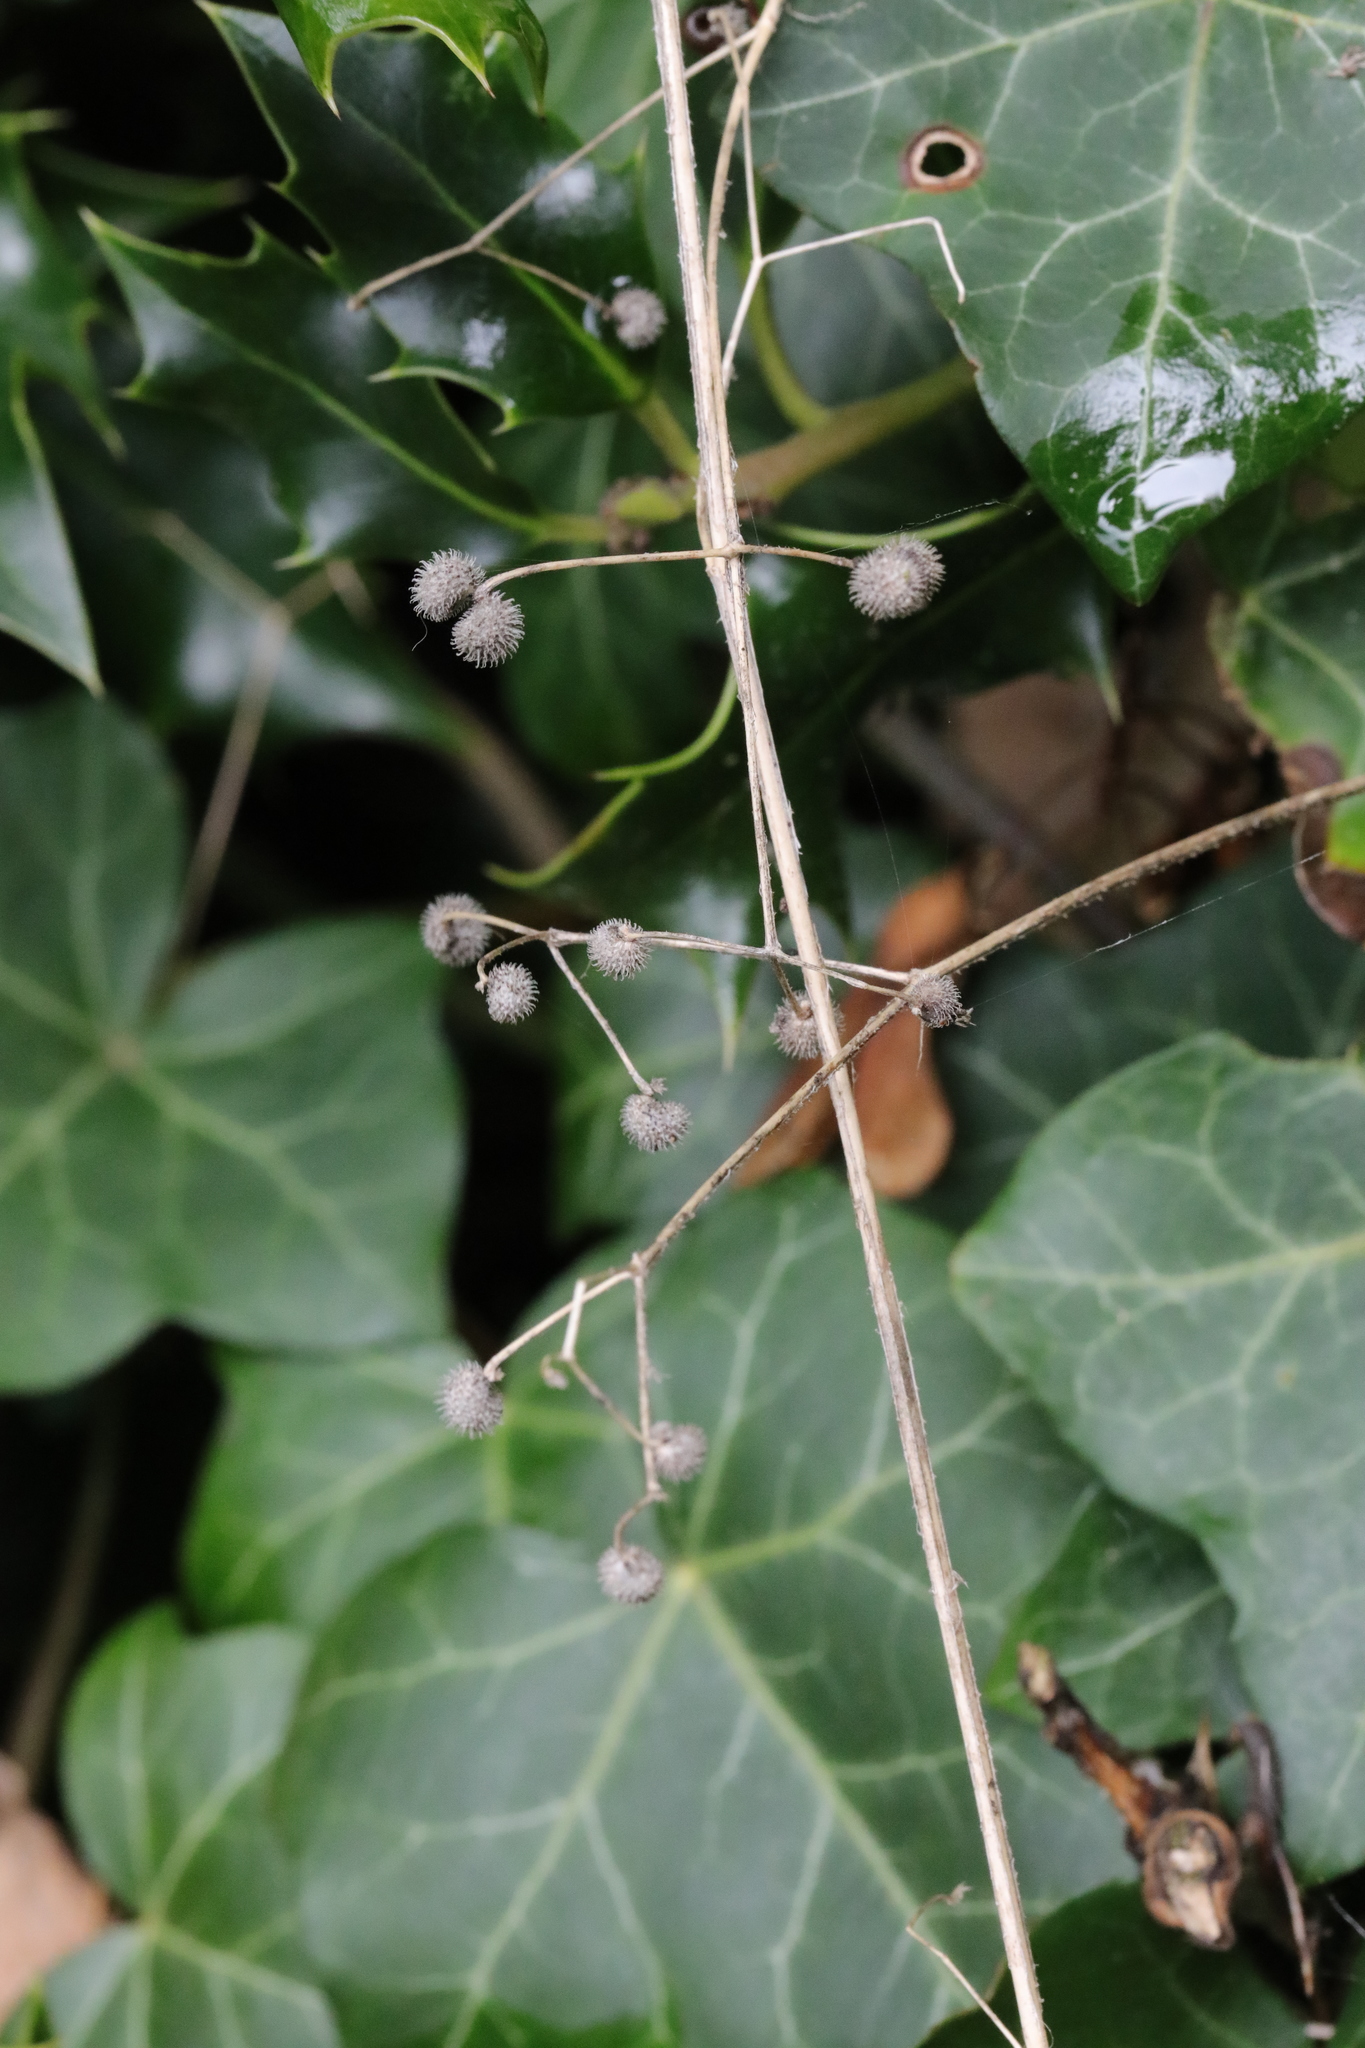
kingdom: Plantae
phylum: Tracheophyta
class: Magnoliopsida
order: Gentianales
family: Rubiaceae
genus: Galium
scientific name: Galium aparine
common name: Cleavers
